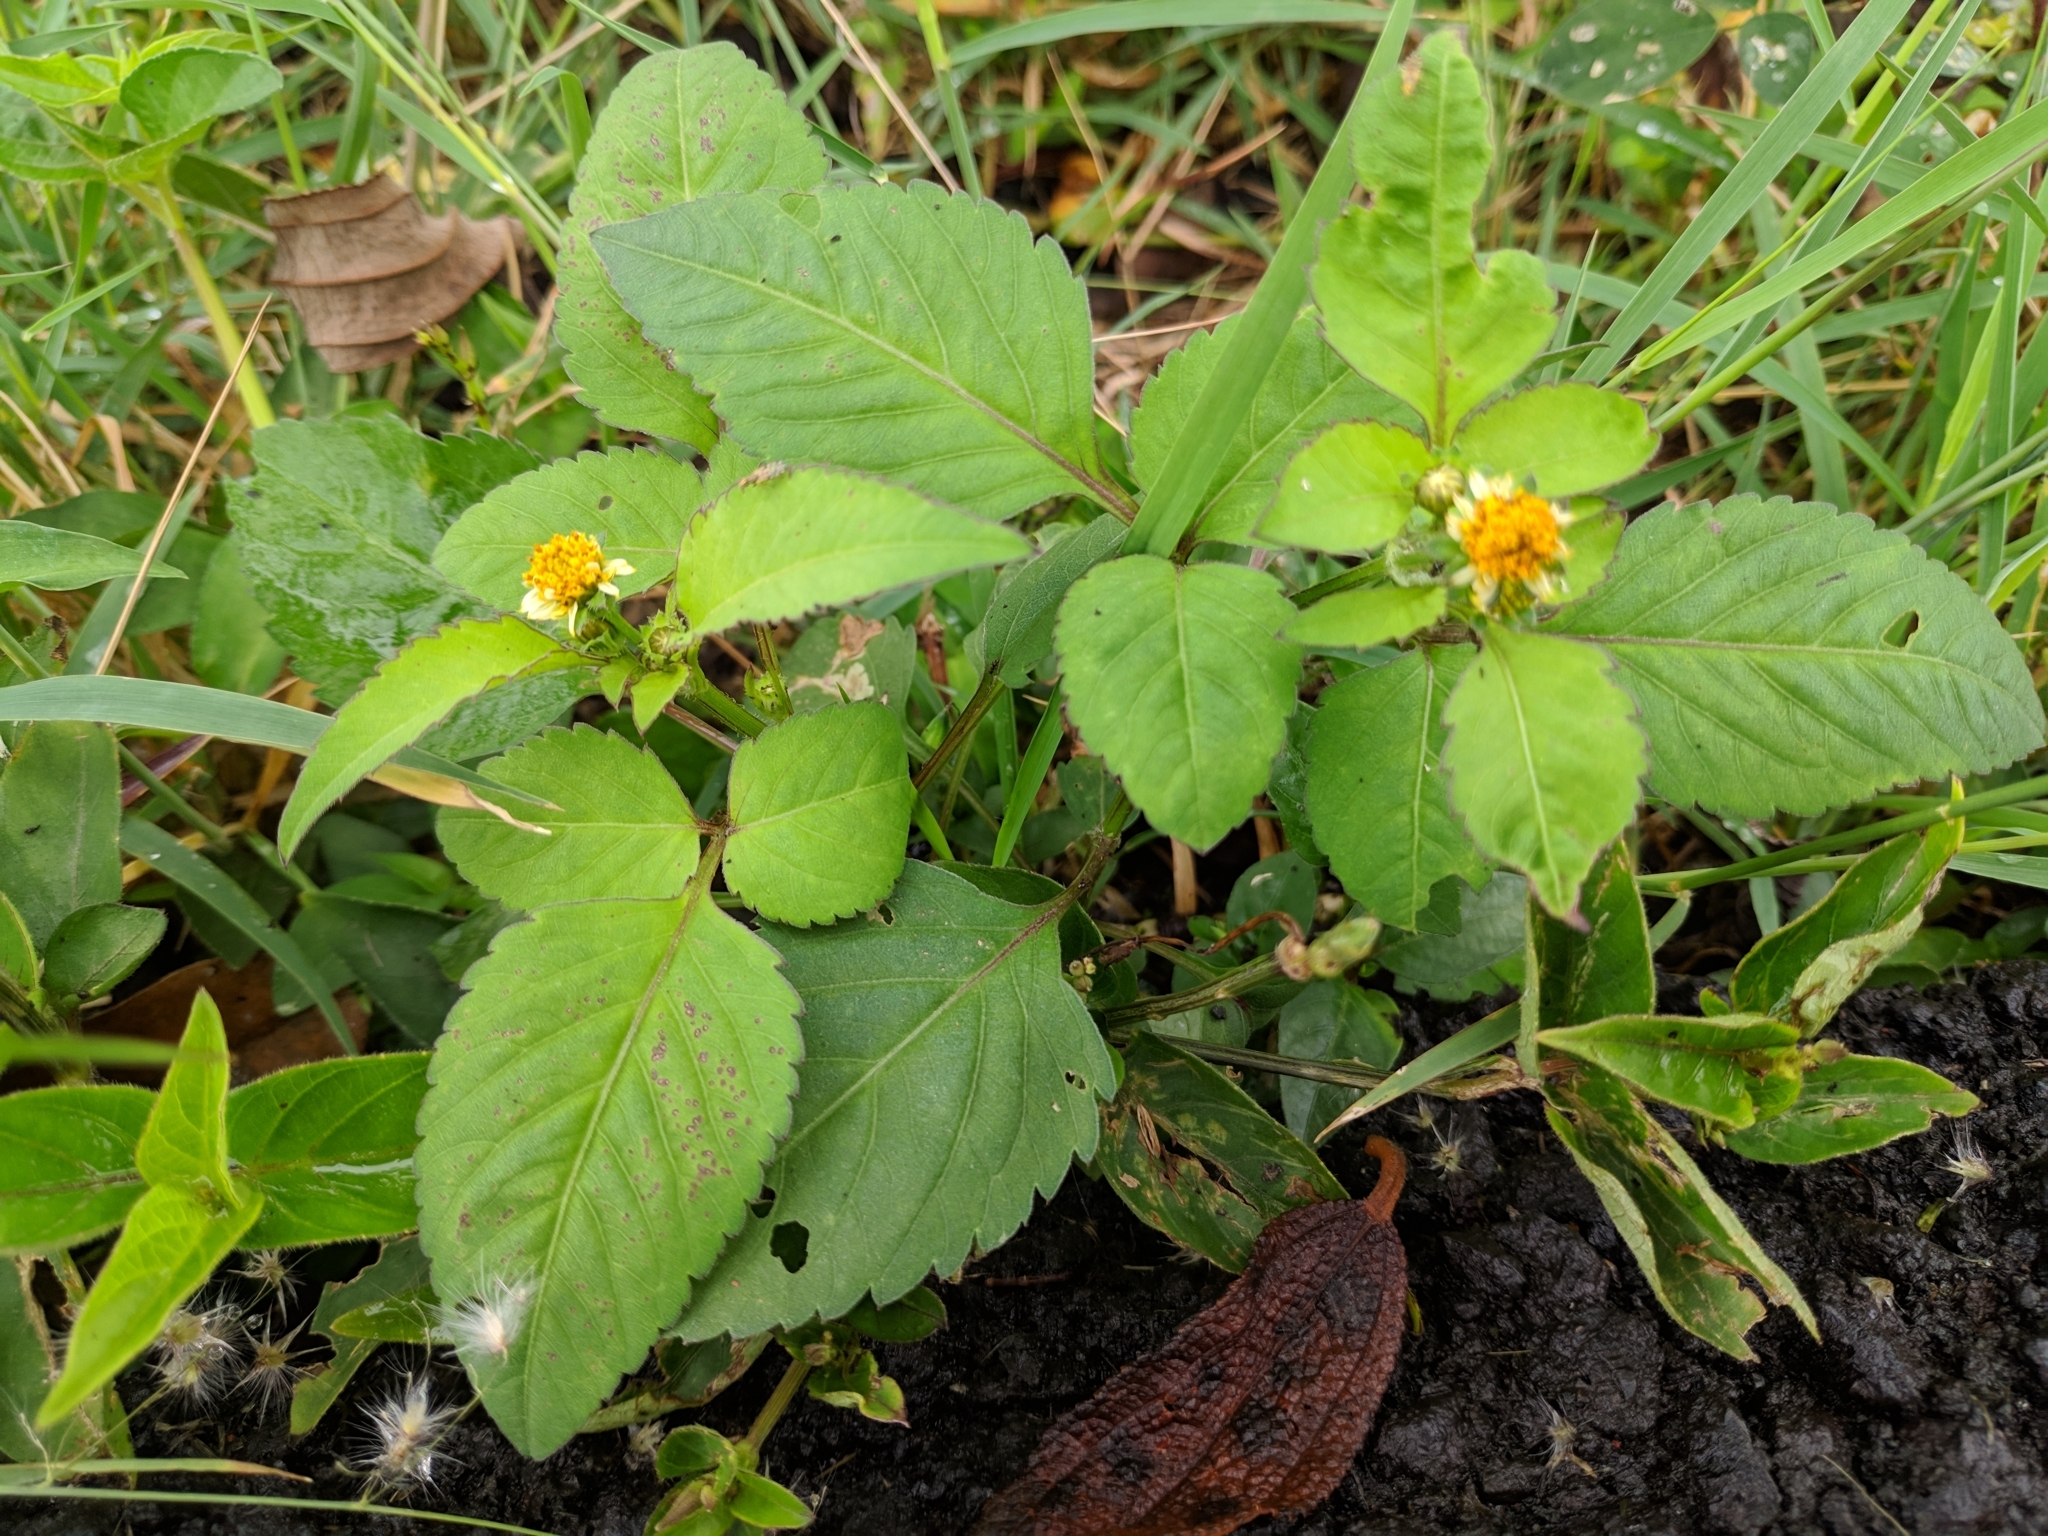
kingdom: Plantae
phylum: Tracheophyta
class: Magnoliopsida
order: Asterales
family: Asteraceae
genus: Bidens
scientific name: Bidens pilosa
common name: Black-jack
